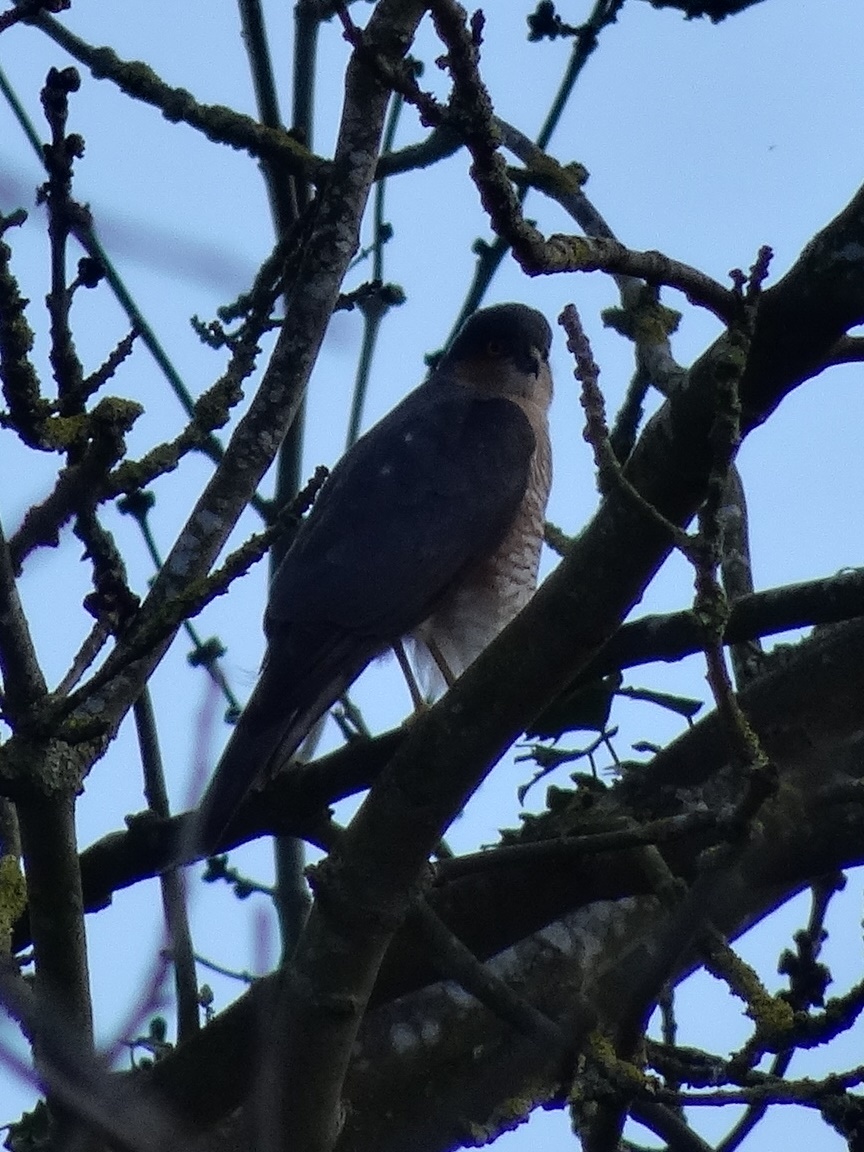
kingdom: Animalia
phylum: Chordata
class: Aves
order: Accipitriformes
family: Accipitridae
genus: Accipiter
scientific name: Accipiter nisus
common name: Eurasian sparrowhawk
